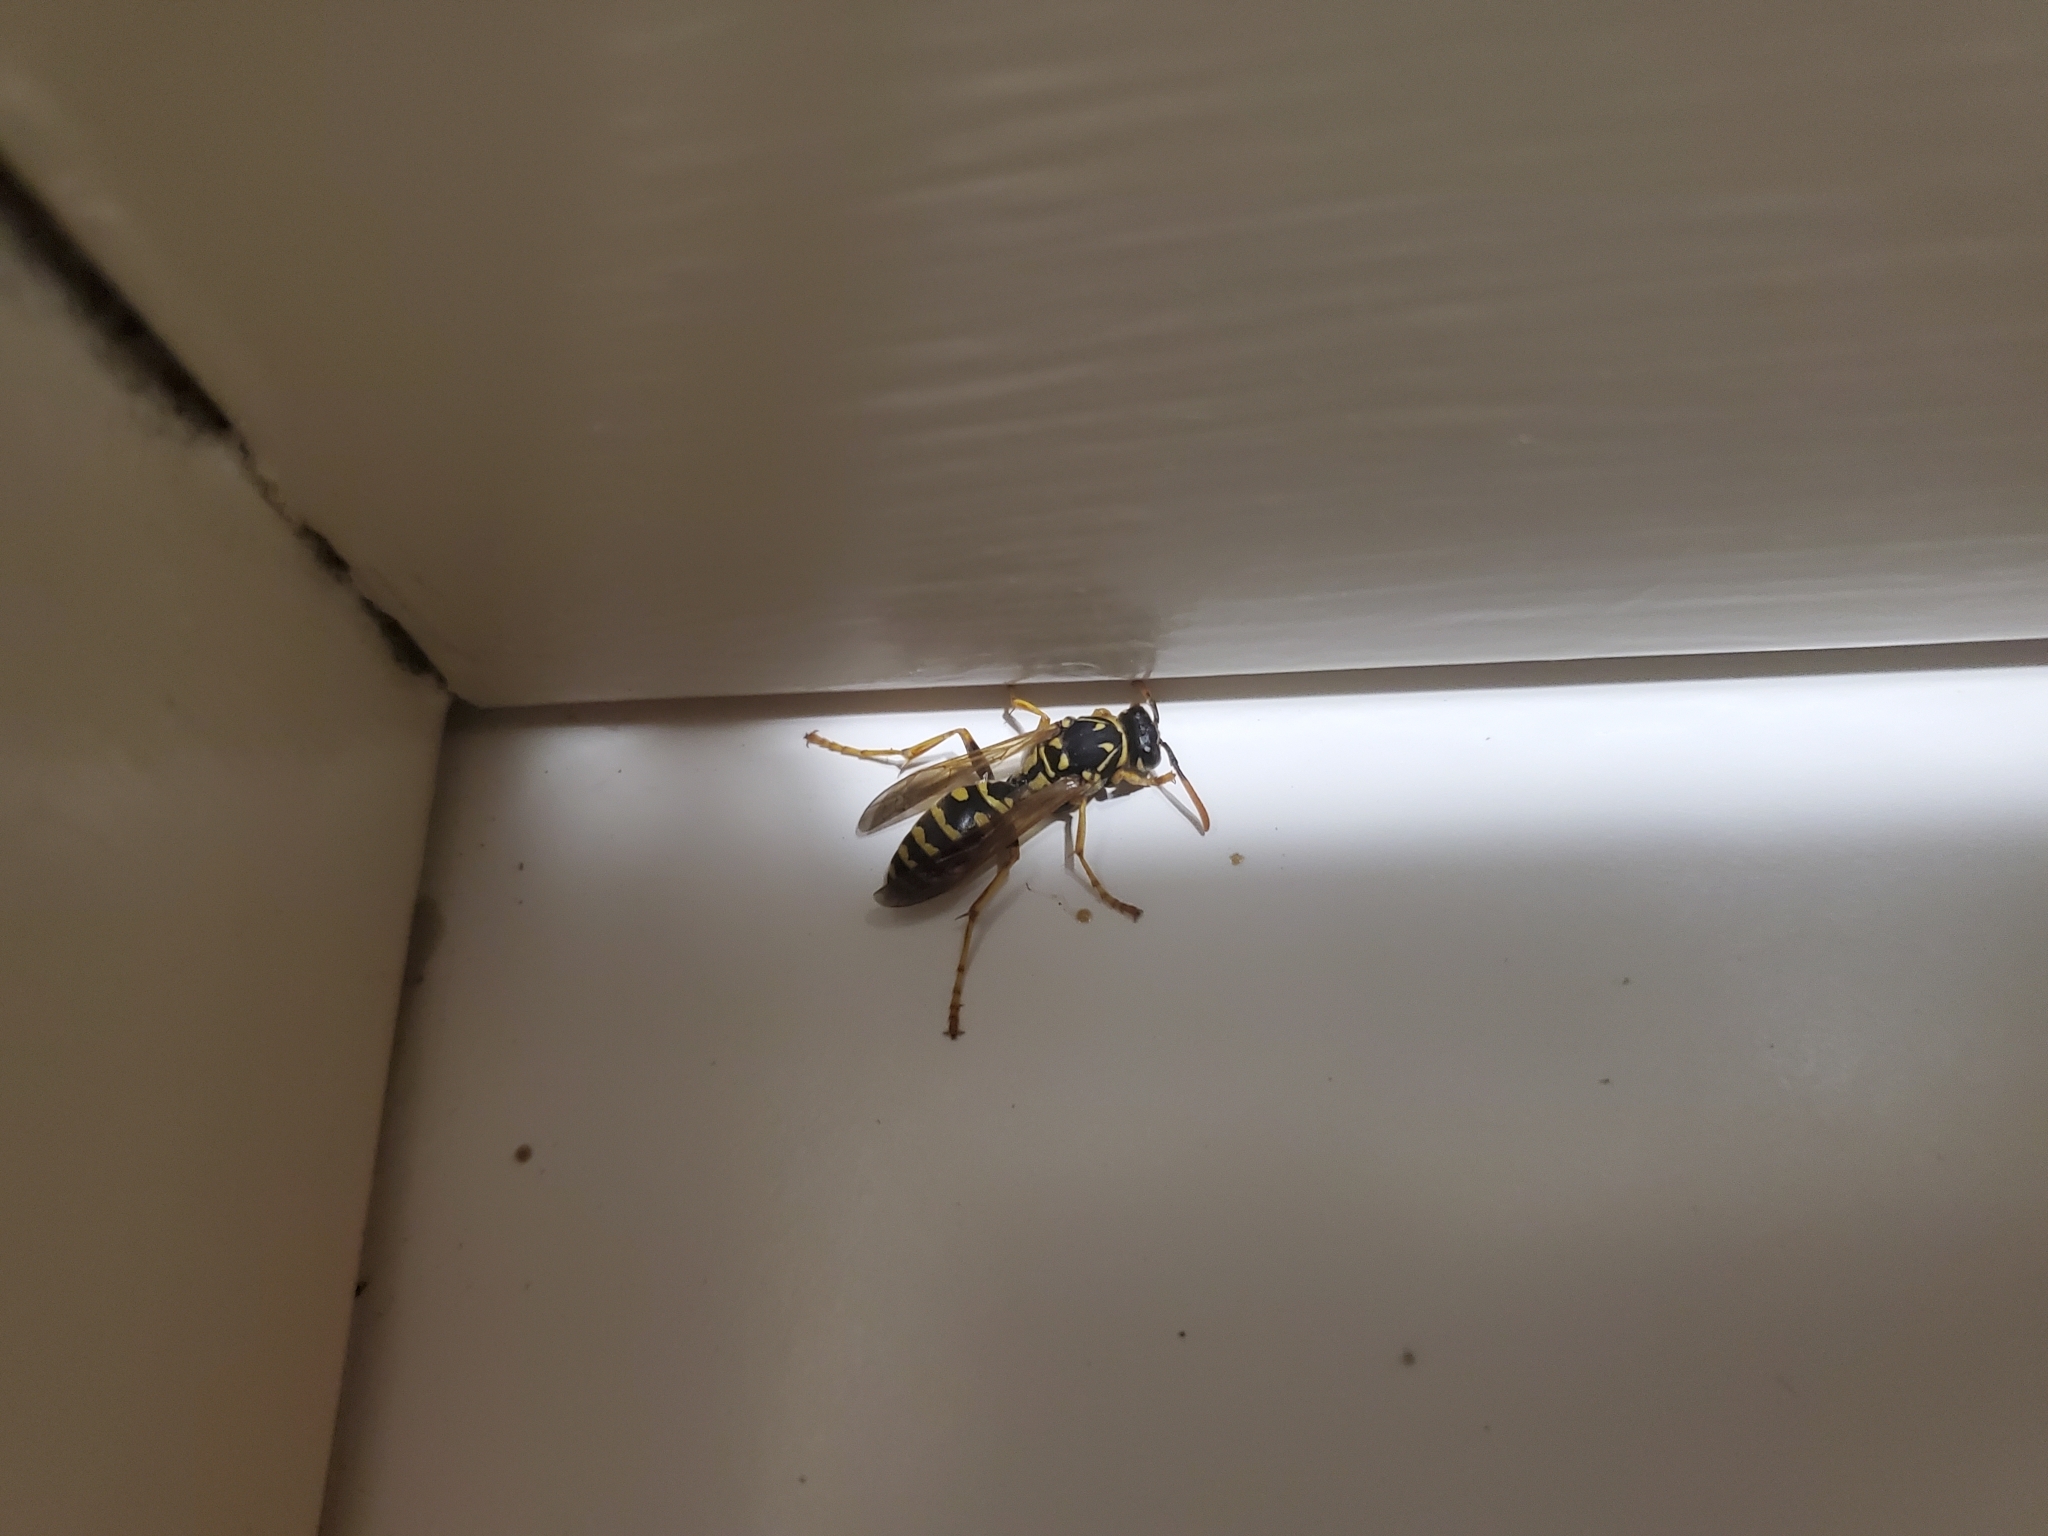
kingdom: Animalia
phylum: Arthropoda
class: Insecta
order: Hymenoptera
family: Eumenidae
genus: Polistes
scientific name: Polistes dominula
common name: Paper wasp
